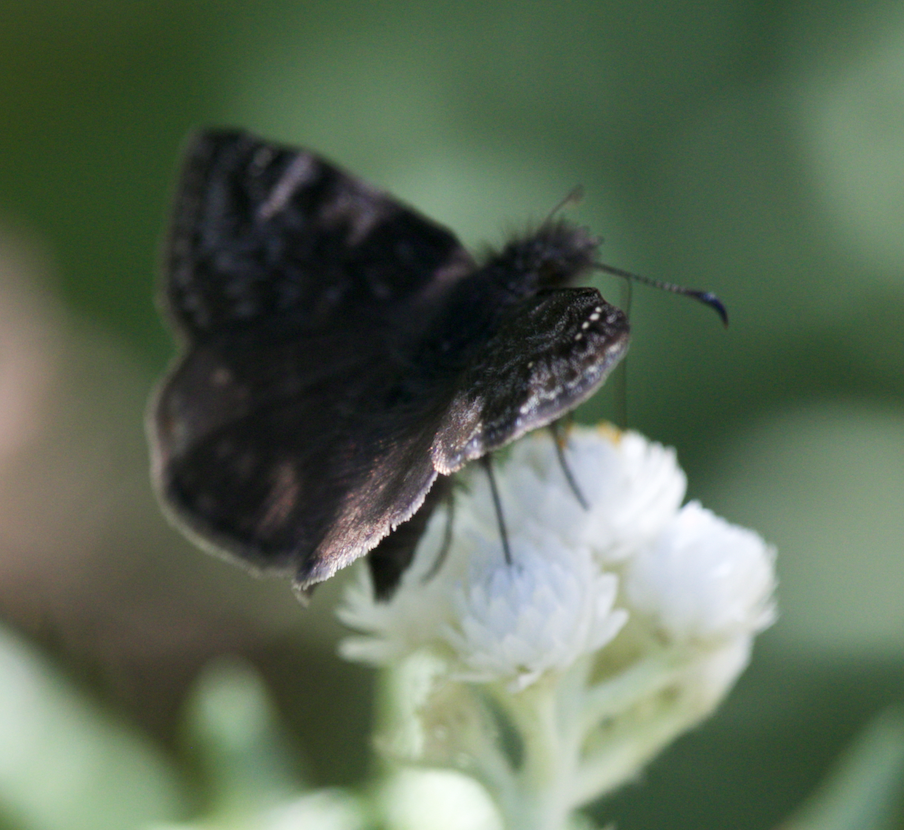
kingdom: Animalia
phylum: Arthropoda
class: Insecta
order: Lepidoptera
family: Hesperiidae
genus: Erynnis
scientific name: Erynnis persius
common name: Persius duskywing
